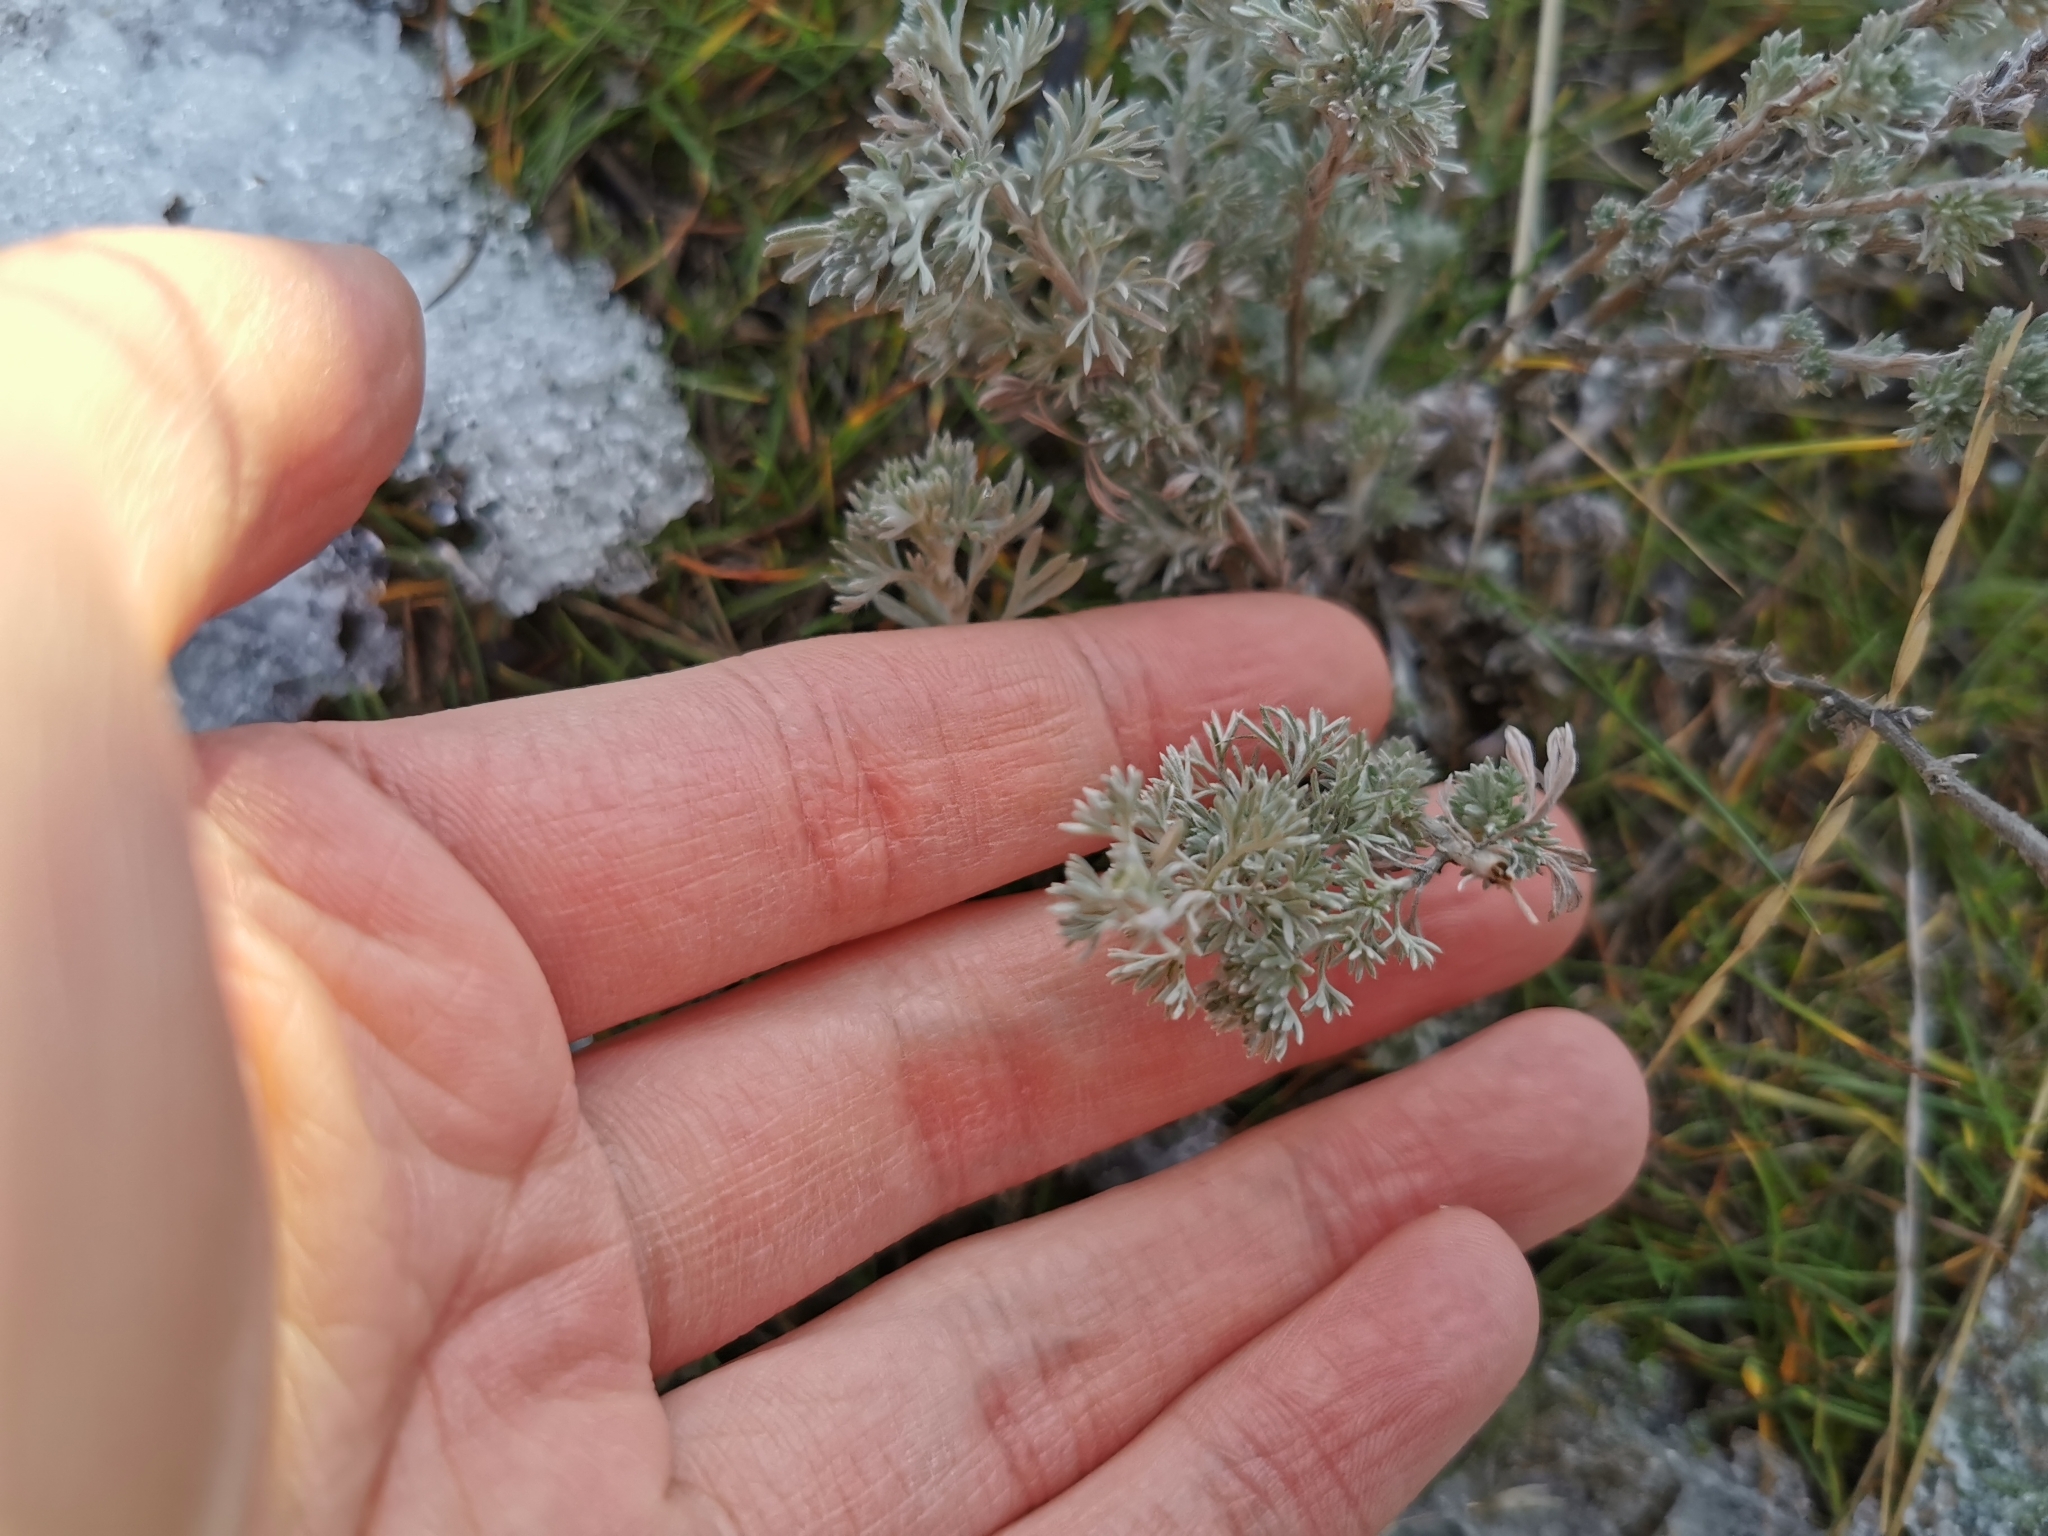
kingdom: Plantae
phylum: Tracheophyta
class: Magnoliopsida
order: Asterales
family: Asteraceae
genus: Artemisia
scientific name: Artemisia frigida
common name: Prairie sagewort
